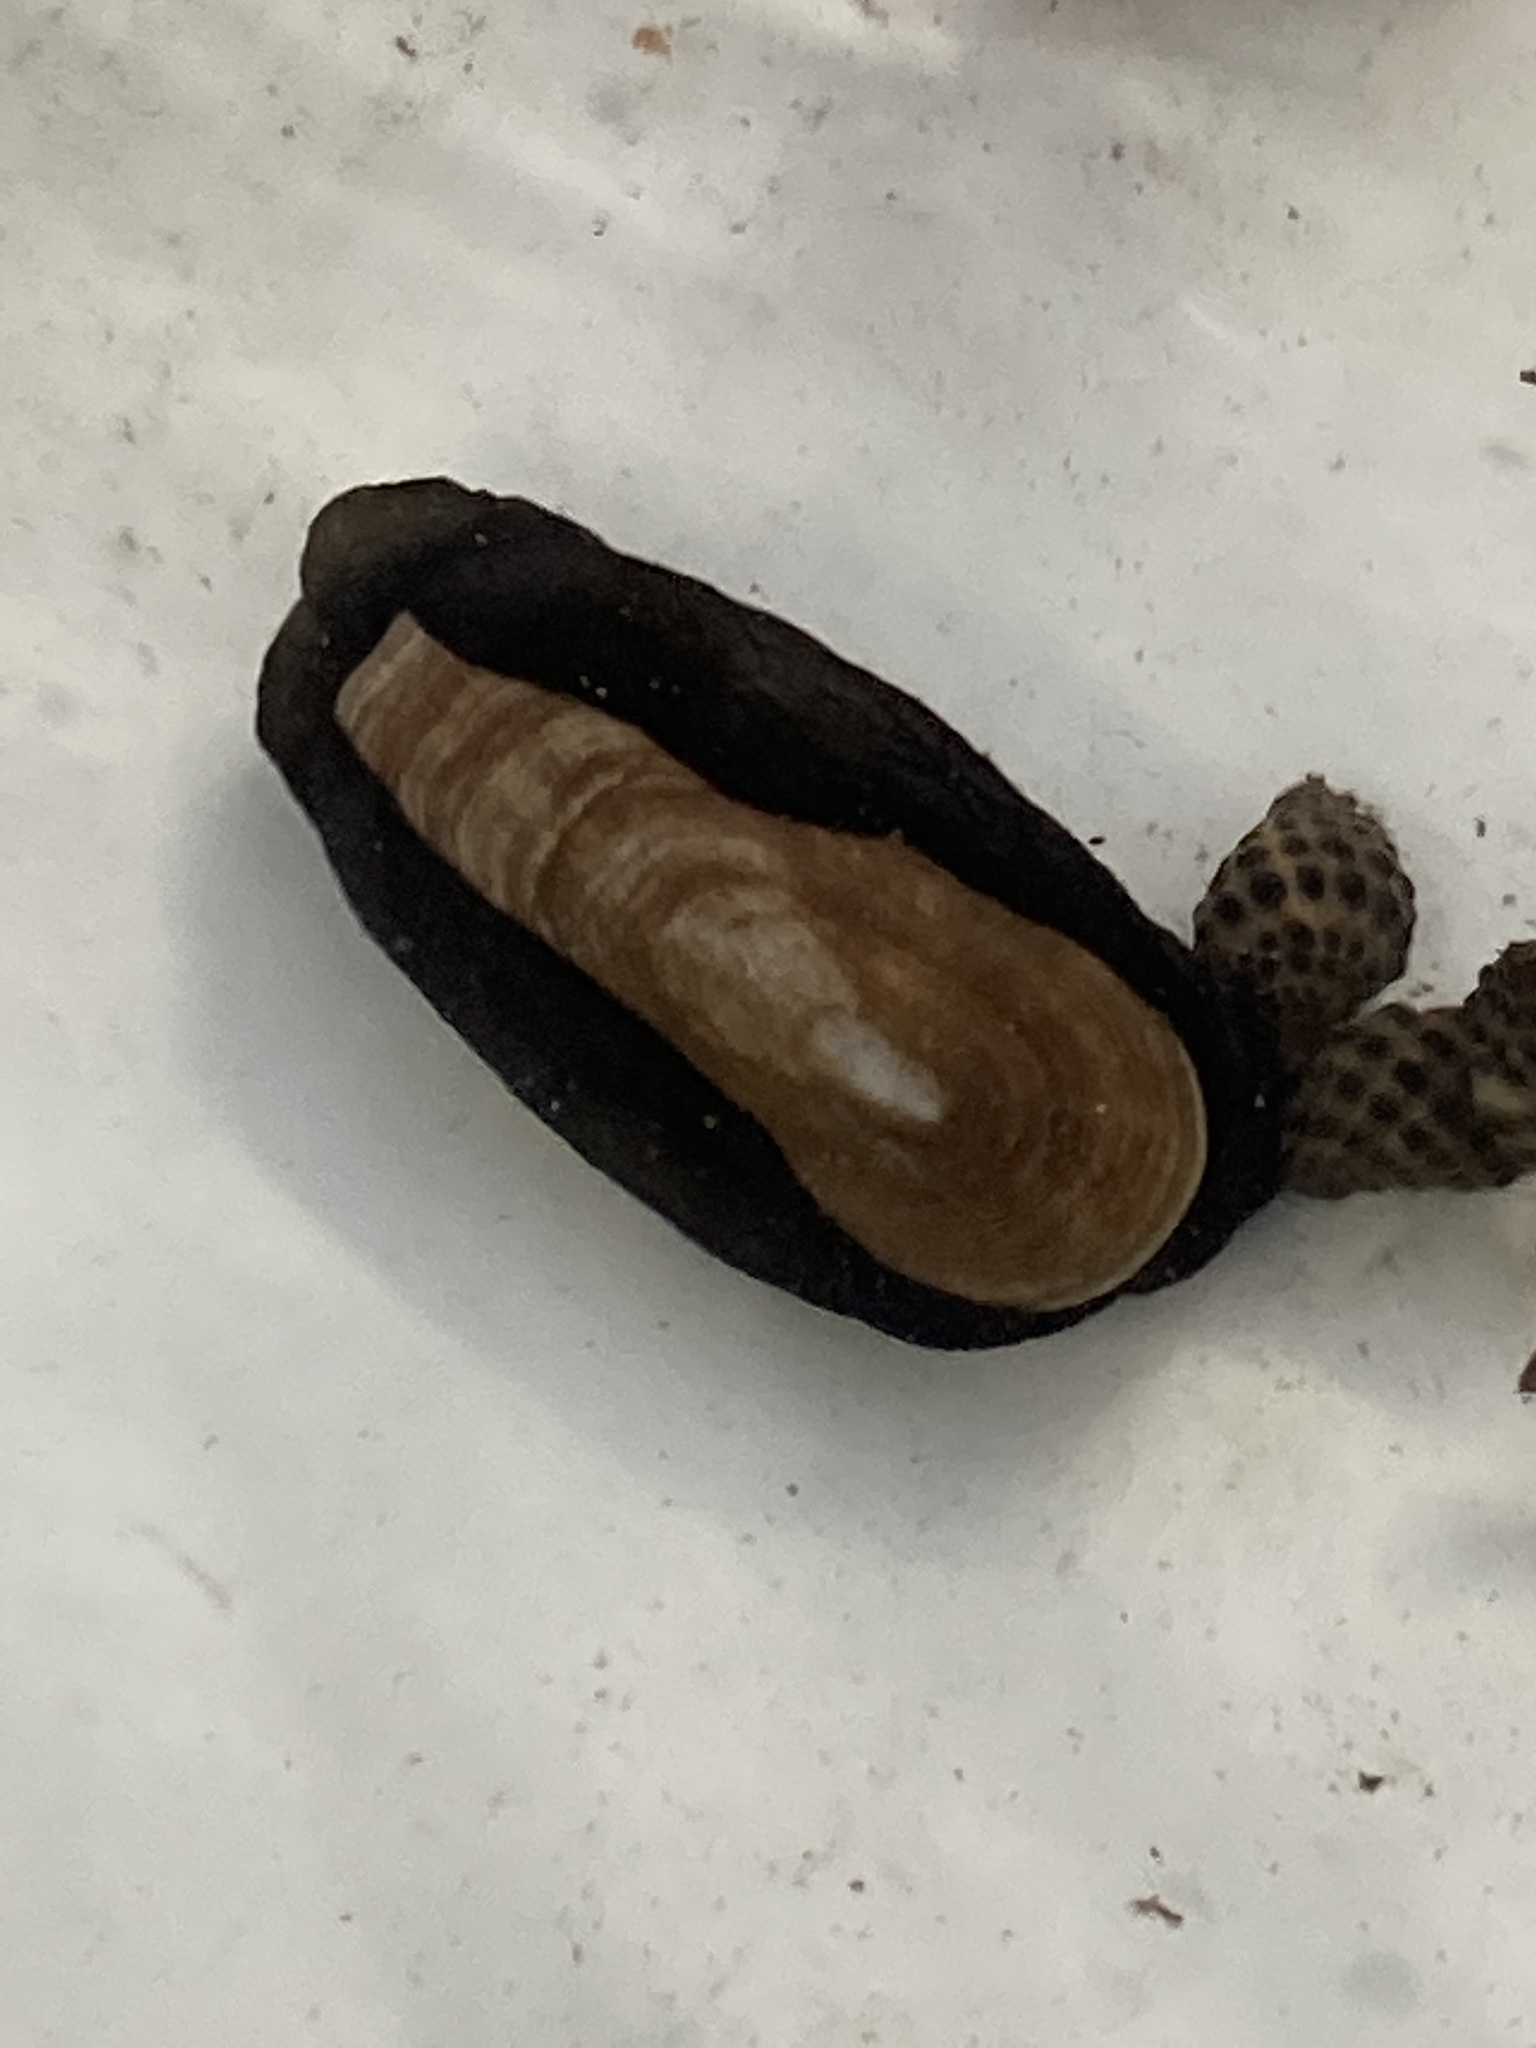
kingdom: Animalia
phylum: Mollusca
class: Gastropoda
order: Lepetellida
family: Fissurellidae
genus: Scutus
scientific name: Scutus antipodes
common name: Duckbill shell
